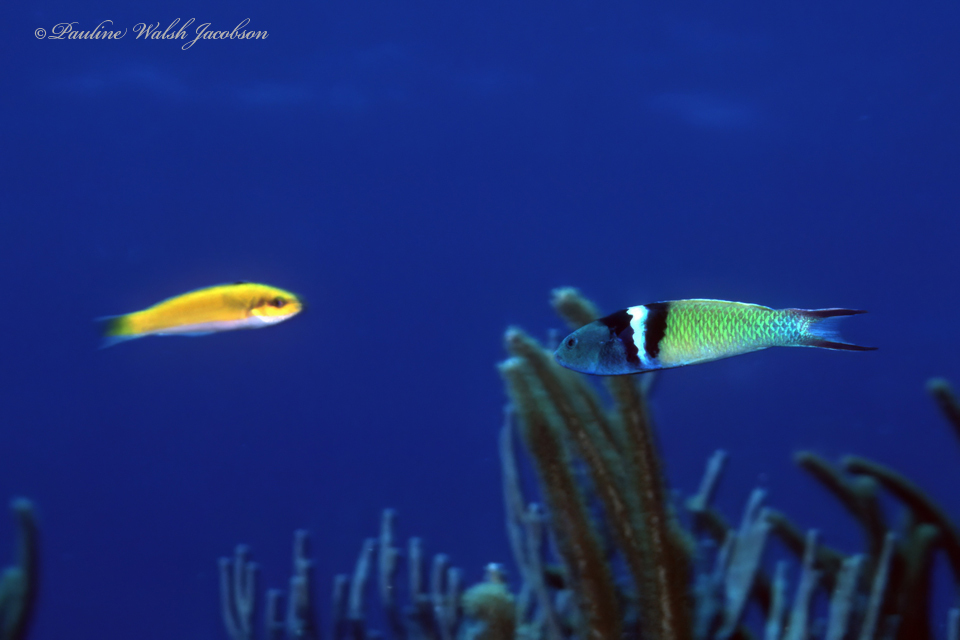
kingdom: Animalia
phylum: Chordata
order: Perciformes
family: Labridae
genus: Thalassoma
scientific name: Thalassoma bifasciatum
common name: Bluehead wrasse
